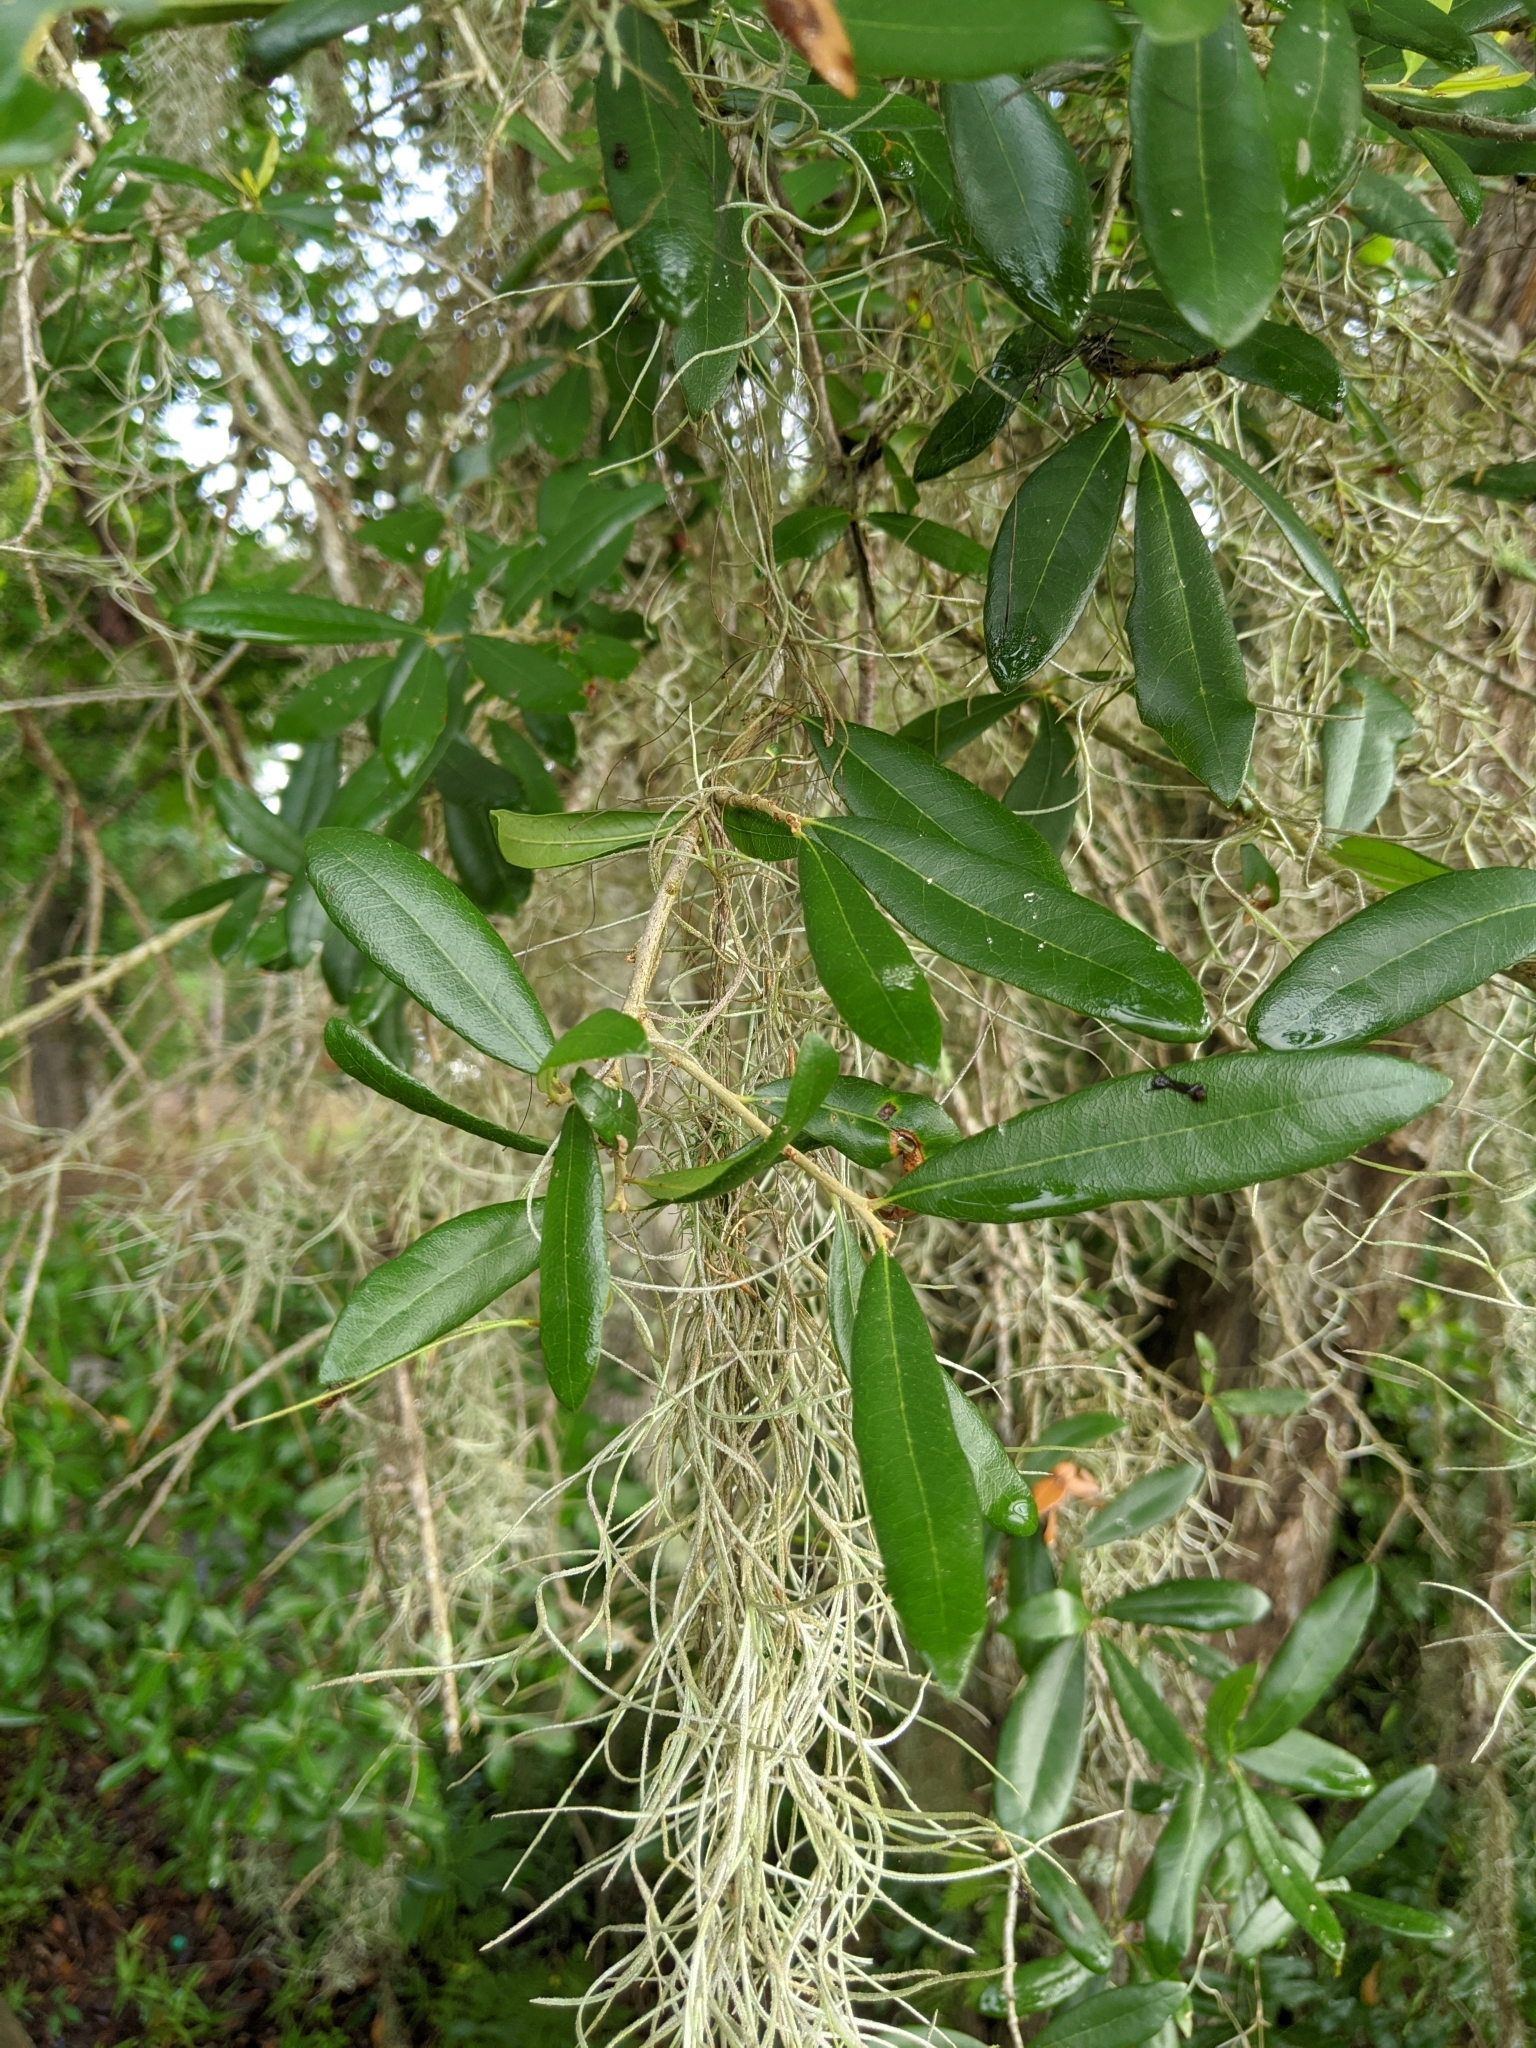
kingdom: Plantae
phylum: Tracheophyta
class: Magnoliopsida
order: Fagales
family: Fagaceae
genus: Quercus
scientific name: Quercus virginiana
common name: Southern live oak
